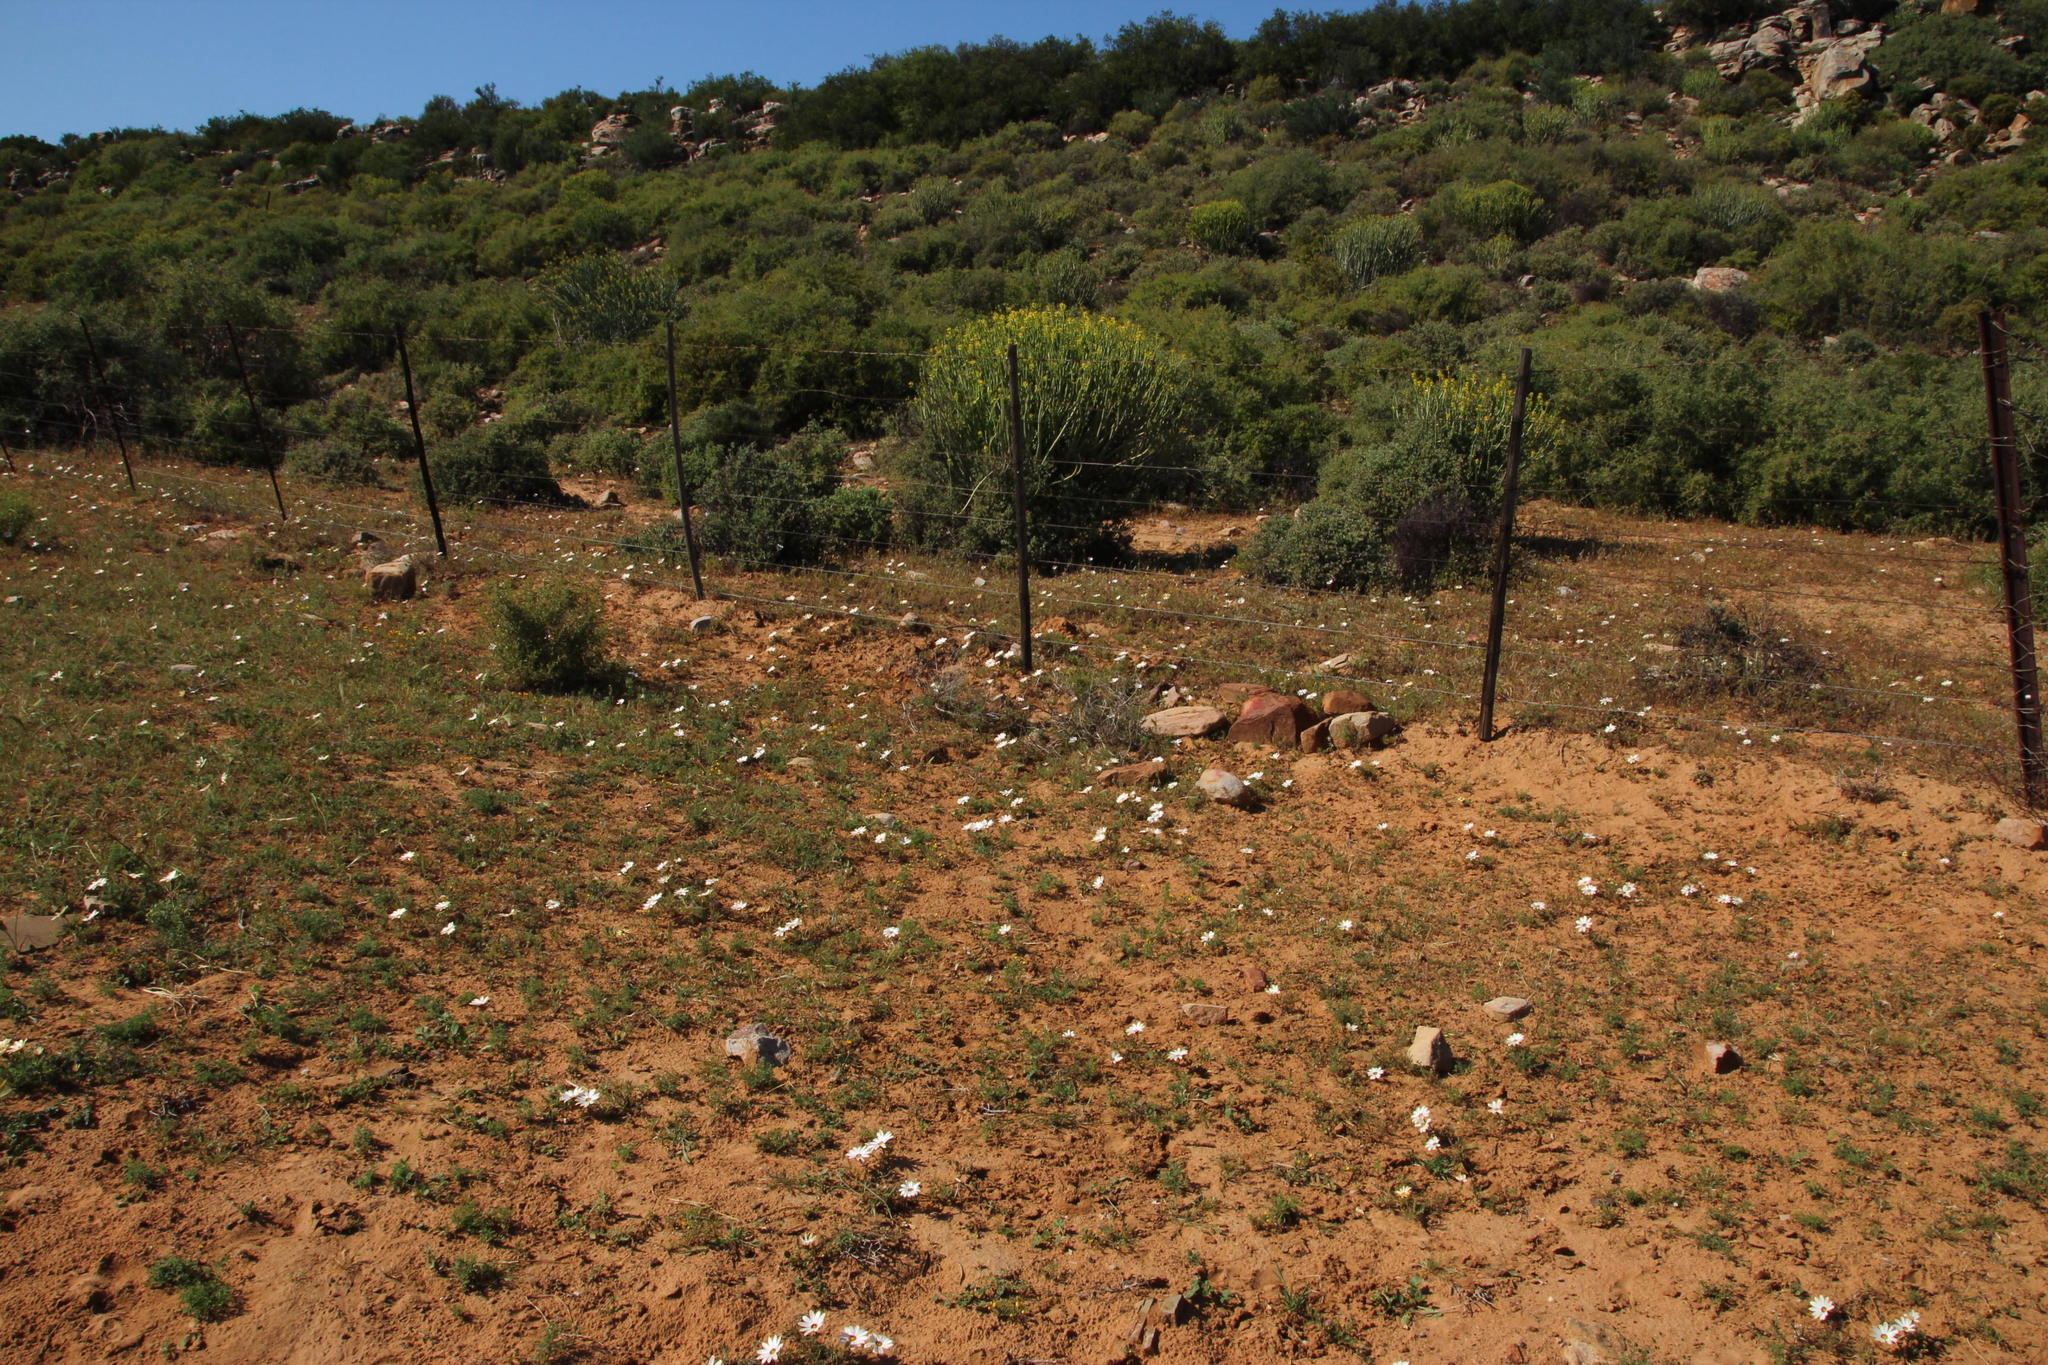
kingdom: Plantae
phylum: Tracheophyta
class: Magnoliopsida
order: Asterales
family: Asteraceae
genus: Dimorphotheca
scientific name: Dimorphotheca pinnata
